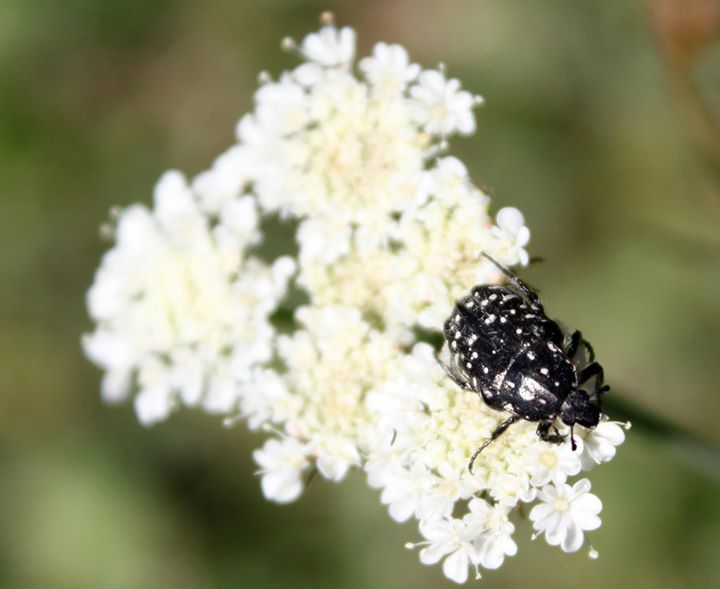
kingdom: Animalia
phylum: Arthropoda
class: Insecta
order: Coleoptera
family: Scarabaeidae
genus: Oxythyrea
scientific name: Oxythyrea funesta
